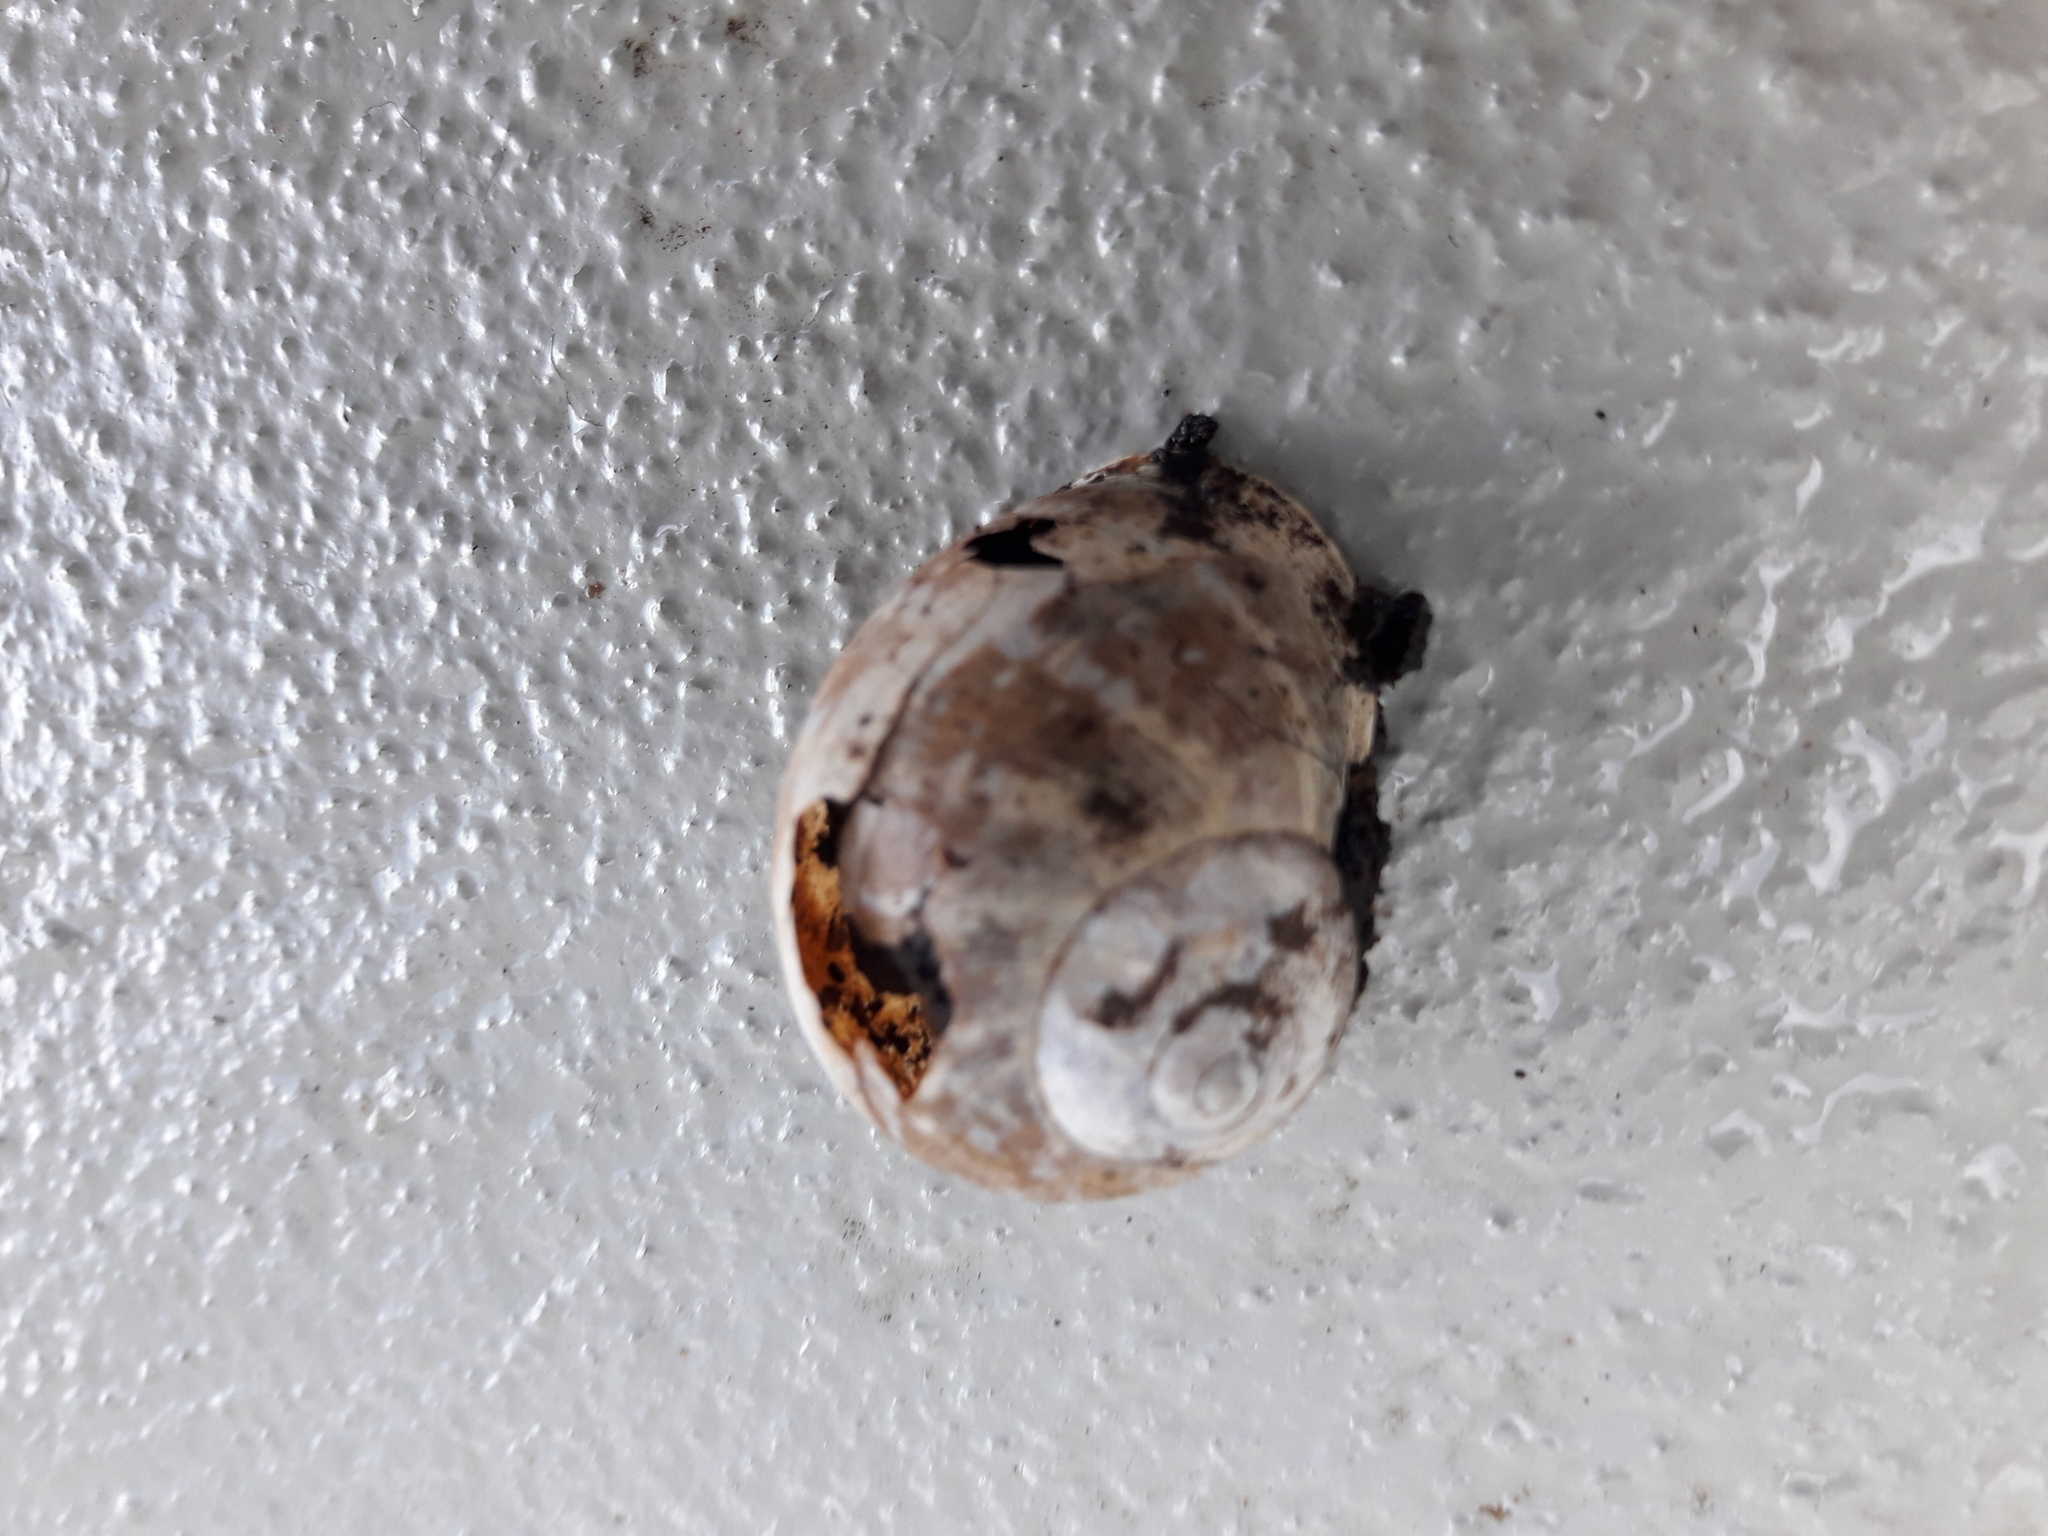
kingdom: Animalia
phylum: Mollusca
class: Gastropoda
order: Stylommatophora
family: Helicidae
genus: Cornu
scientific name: Cornu aspersum
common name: Brown garden snail
